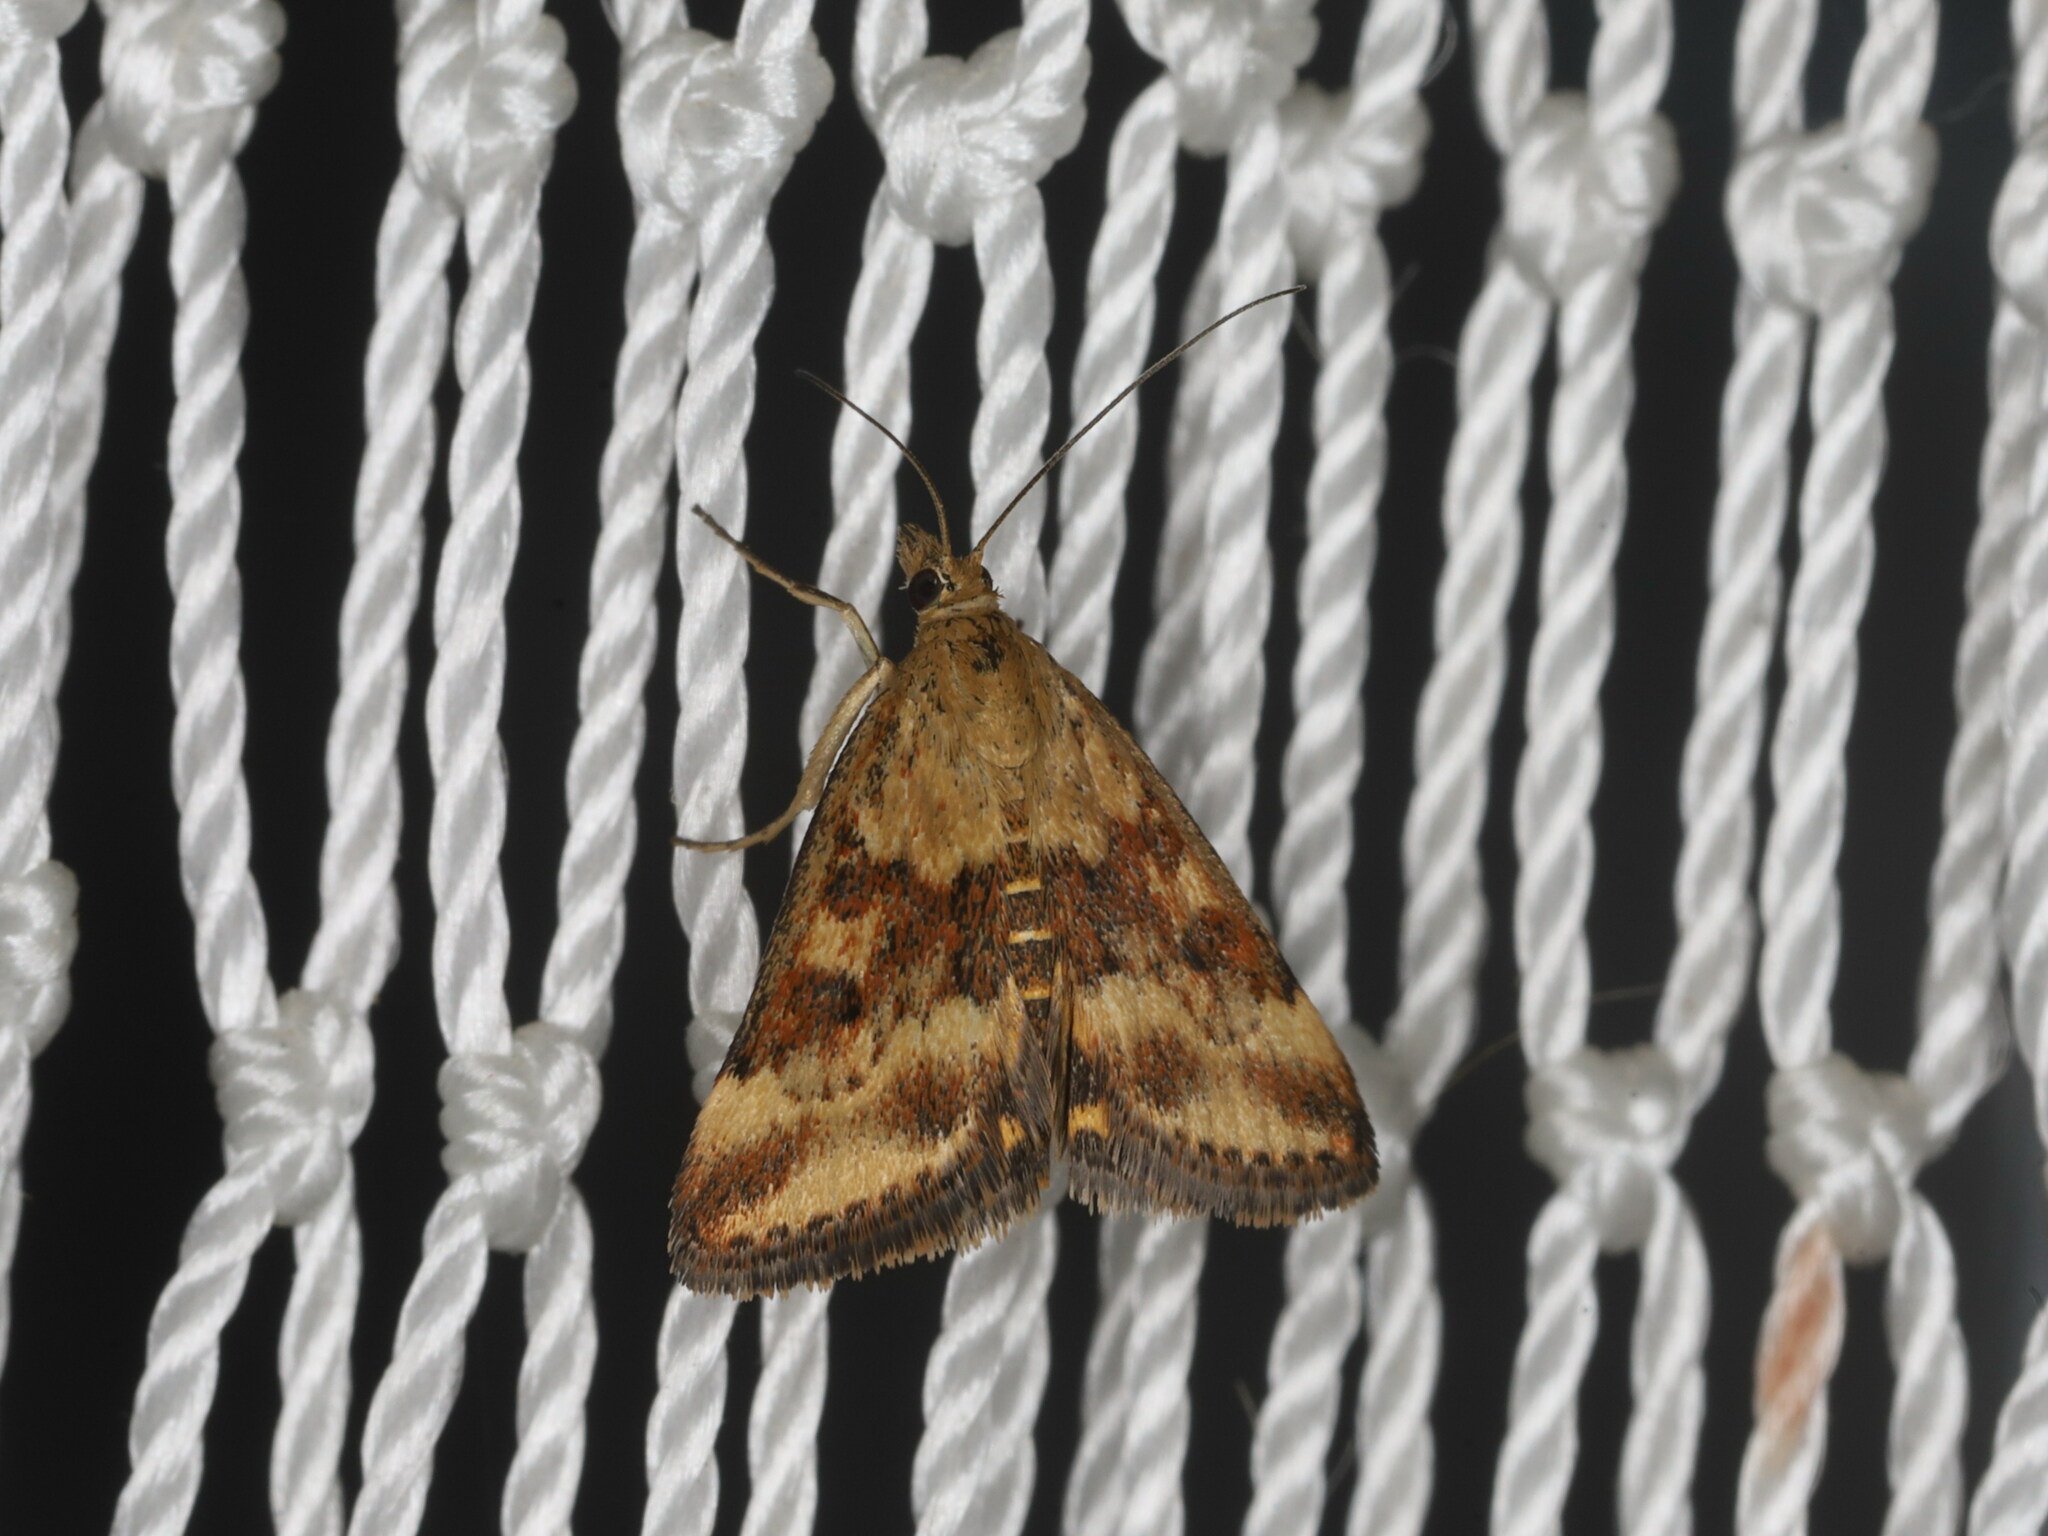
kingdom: Animalia
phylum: Arthropoda
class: Insecta
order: Lepidoptera
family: Crambidae
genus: Pyrausta
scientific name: Pyrausta despicata
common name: Straw-barred pearl
